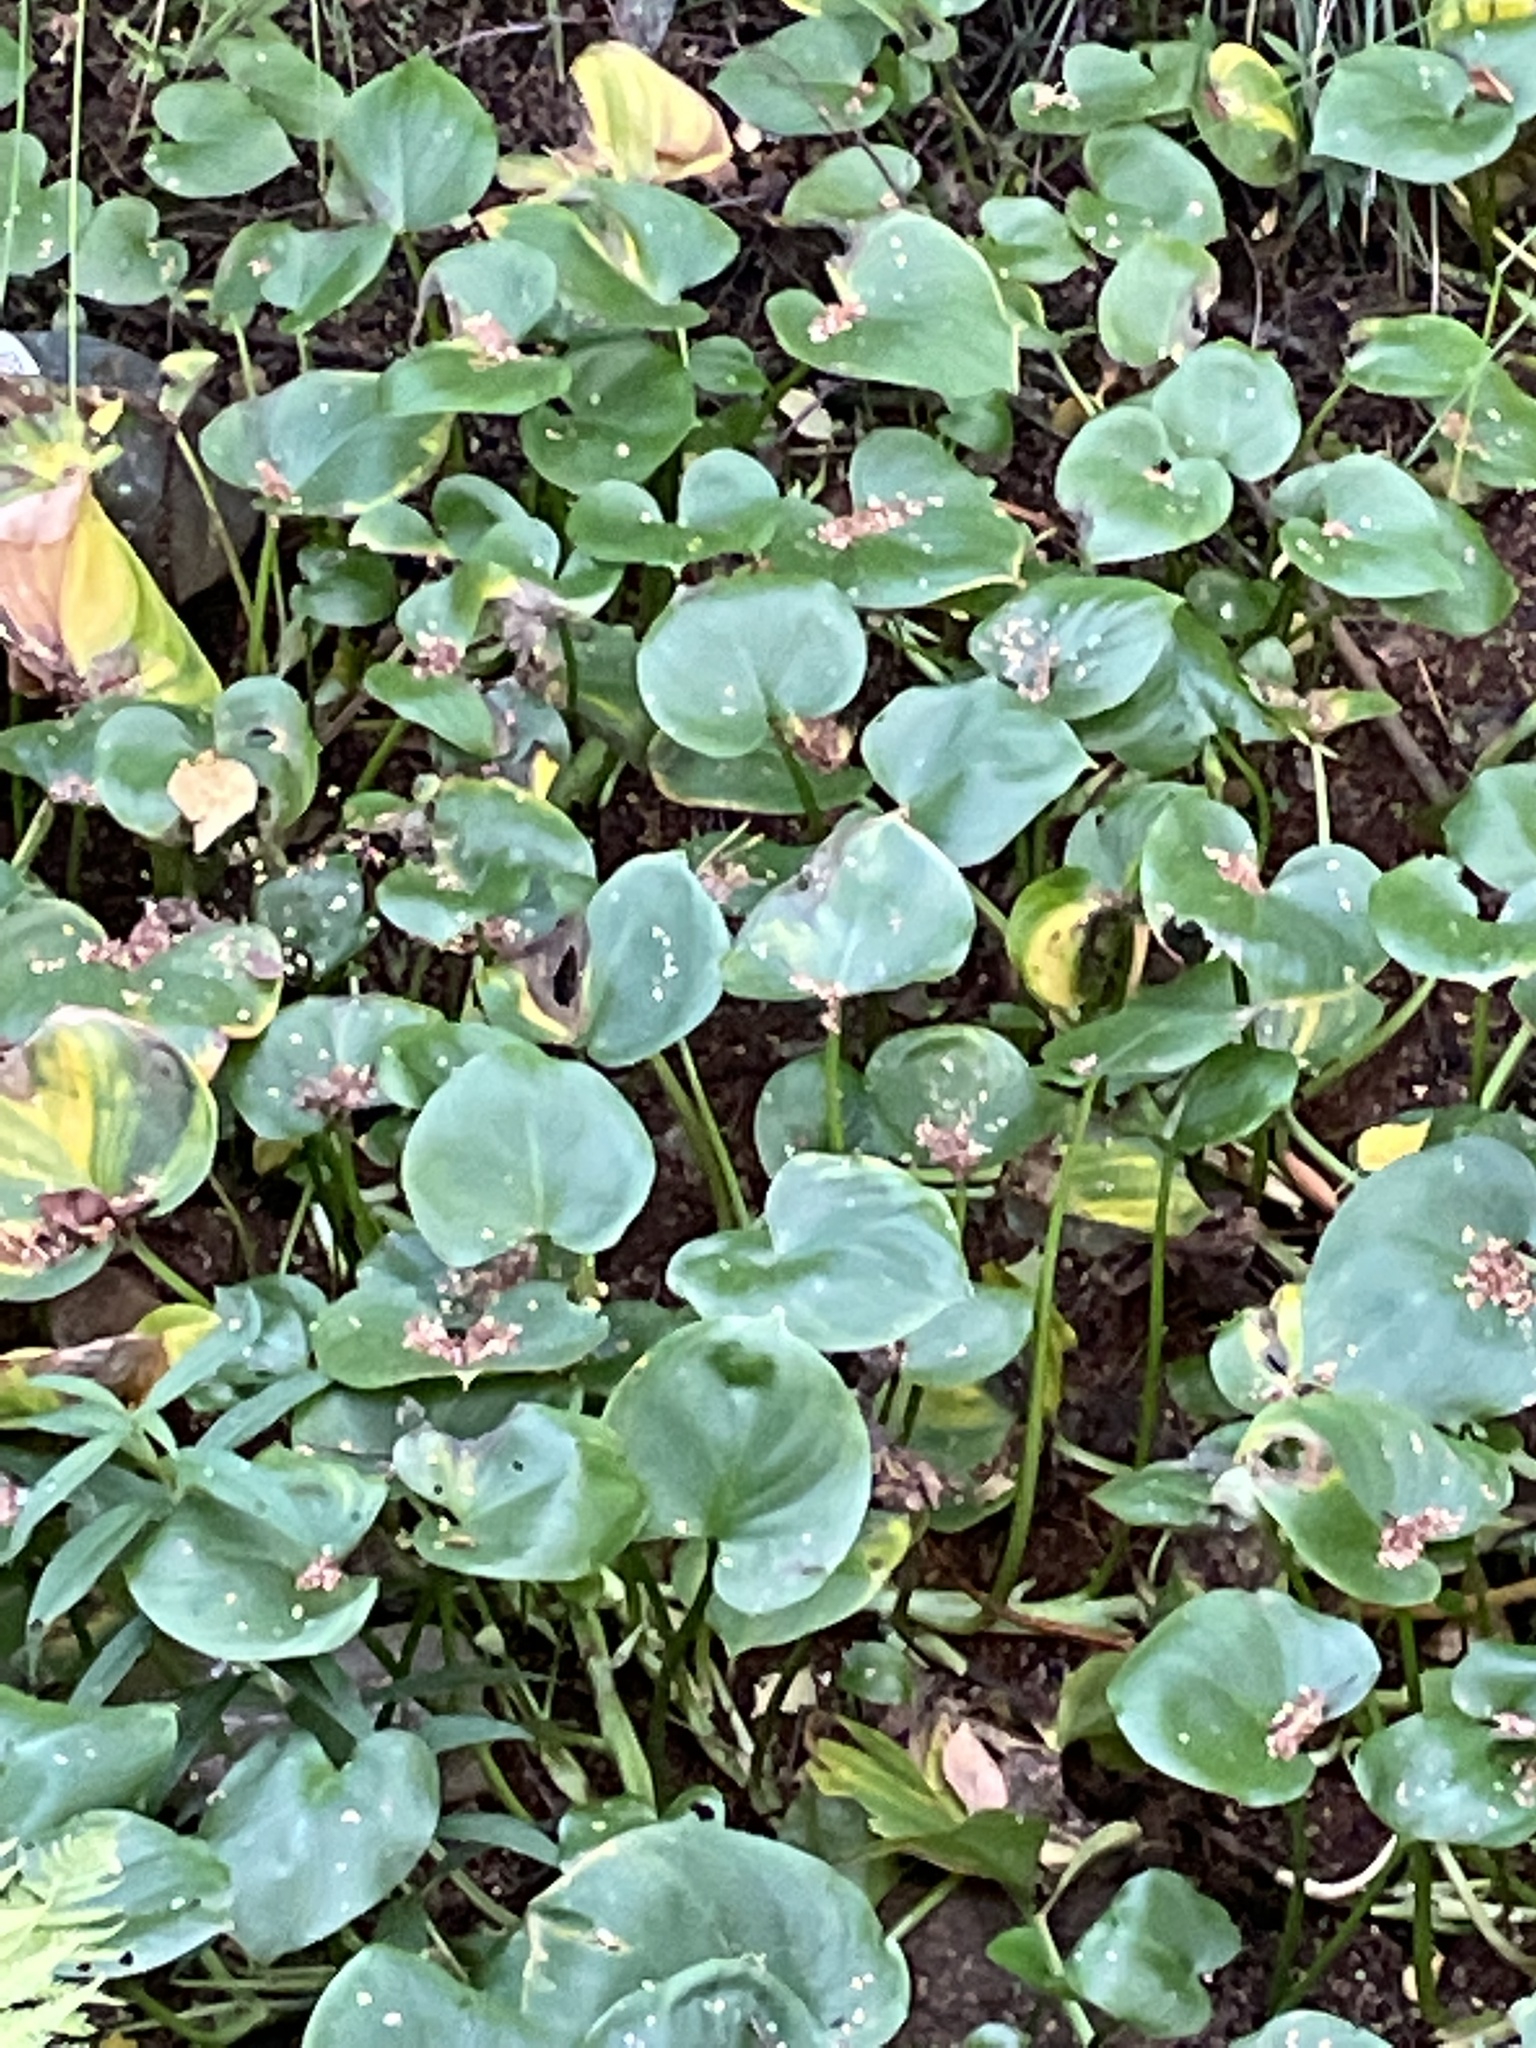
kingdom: Plantae
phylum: Tracheophyta
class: Liliopsida
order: Alismatales
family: Araceae
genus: Calla
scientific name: Calla palustris
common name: Bog arum
